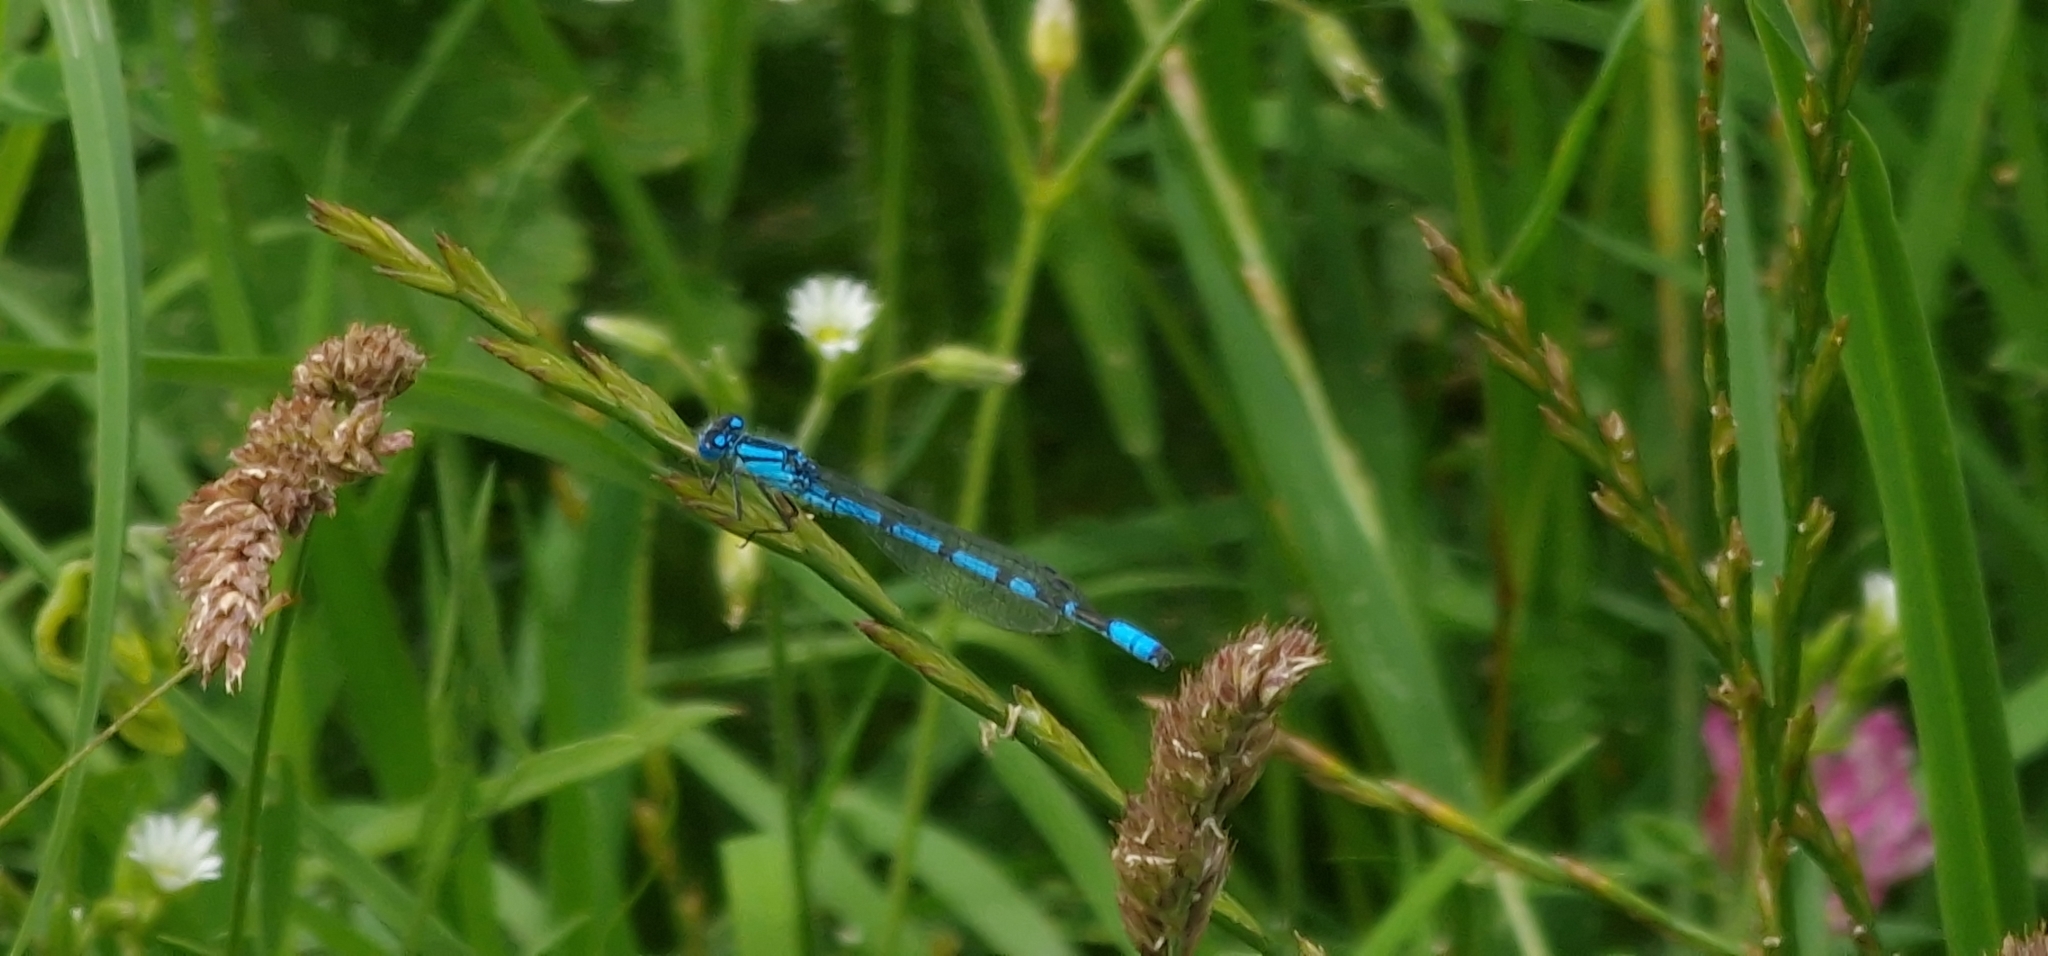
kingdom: Animalia
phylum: Arthropoda
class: Insecta
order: Odonata
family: Coenagrionidae
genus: Enallagma
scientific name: Enallagma cyathigerum
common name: Common blue damselfly
